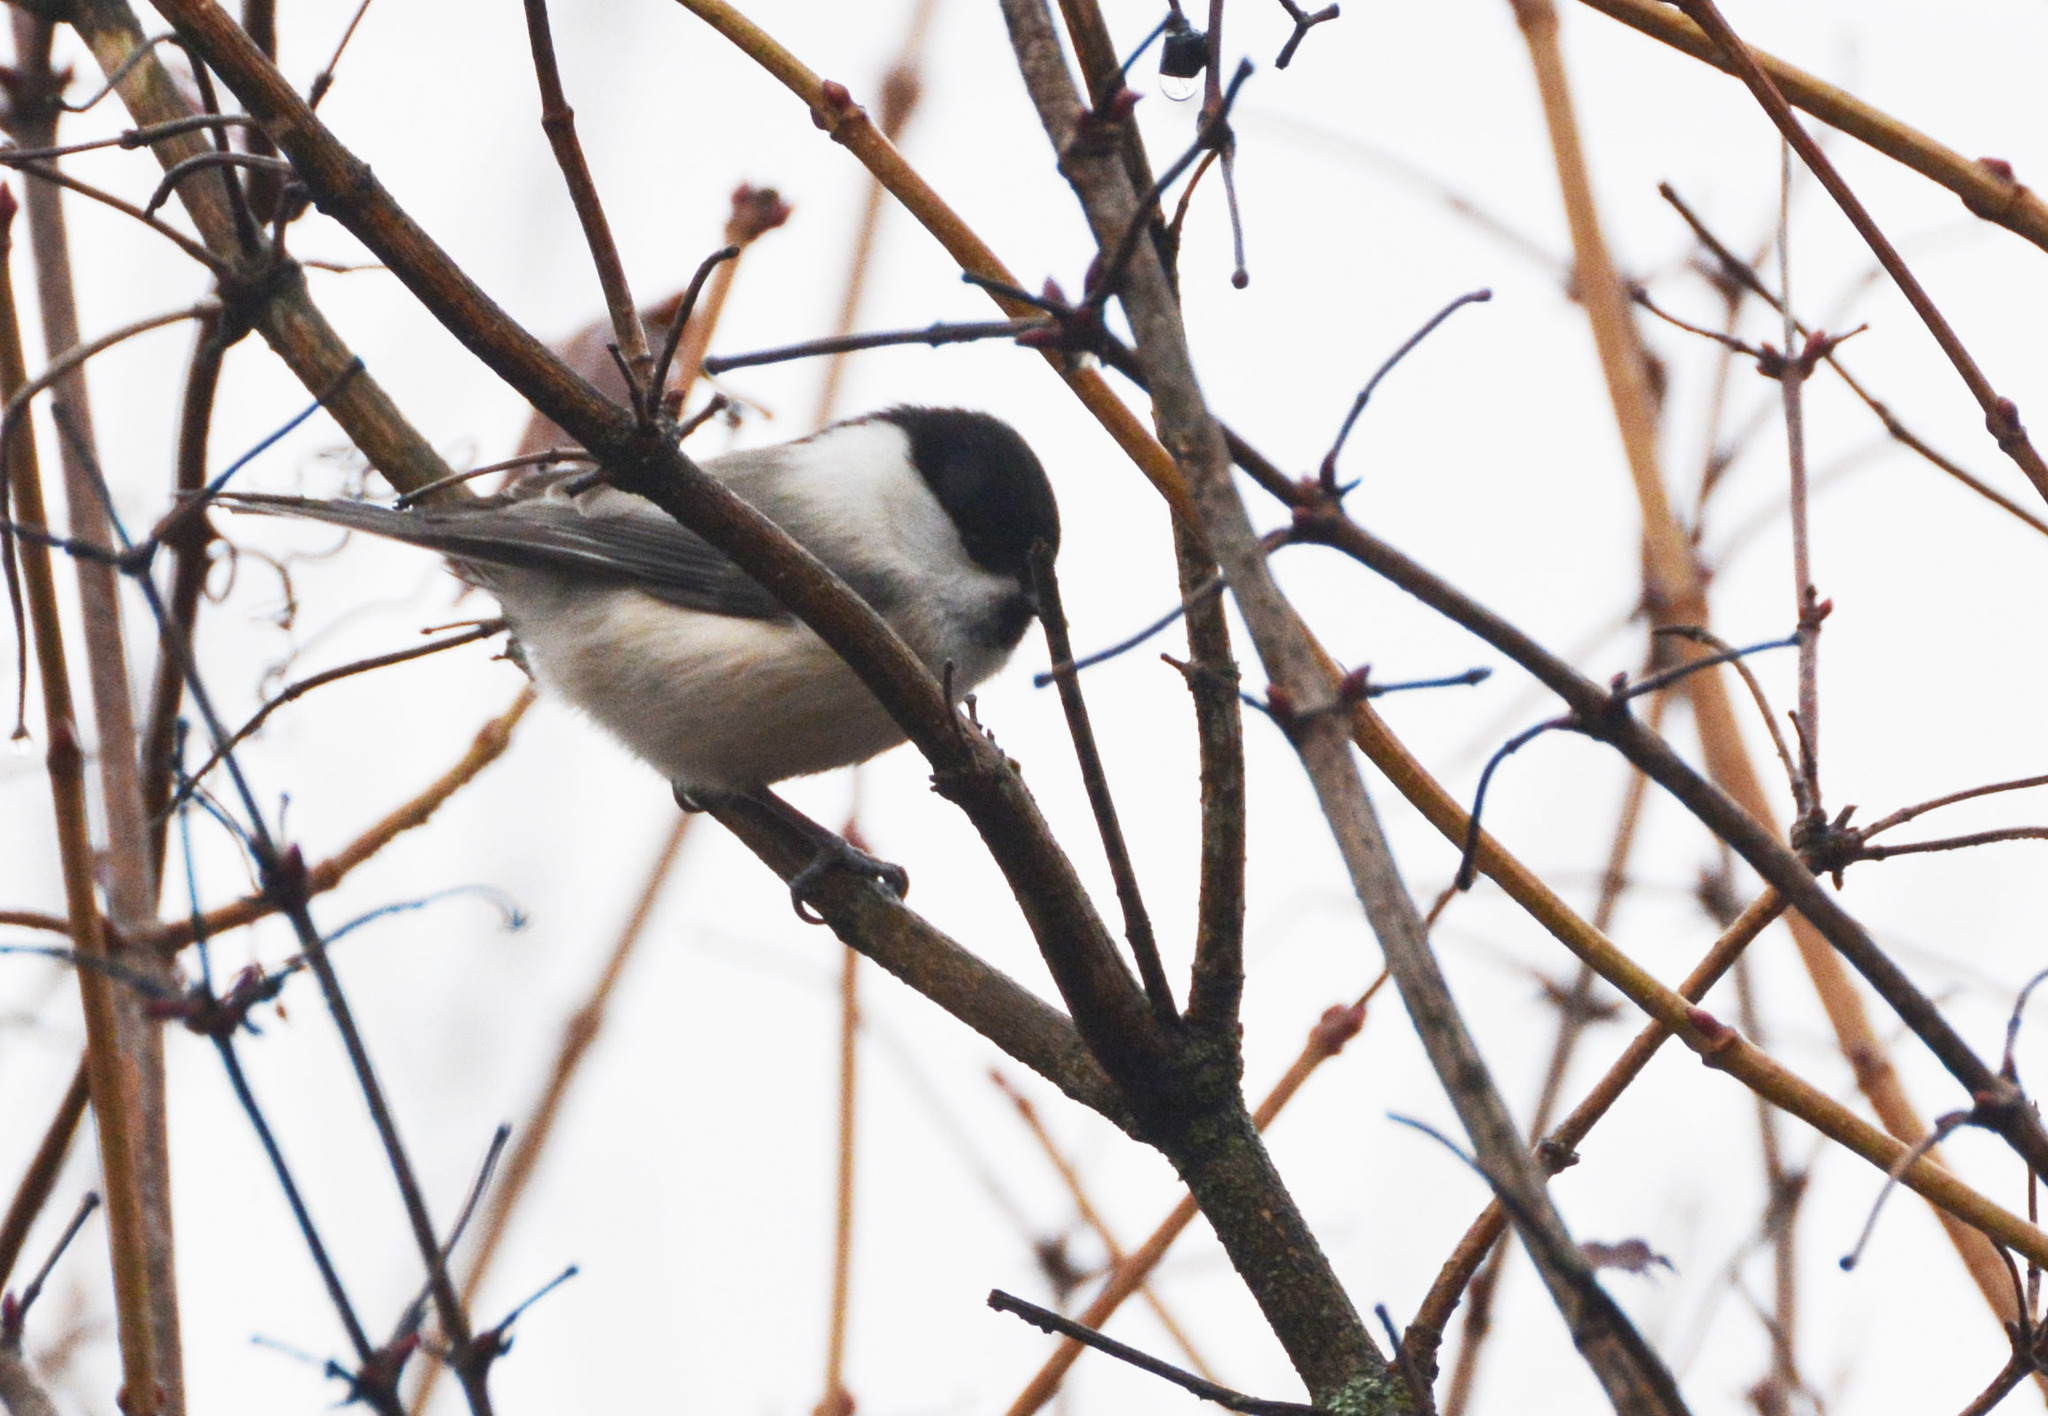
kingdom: Animalia
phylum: Chordata
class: Aves
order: Passeriformes
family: Paridae
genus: Poecile
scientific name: Poecile montanus
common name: Willow tit
